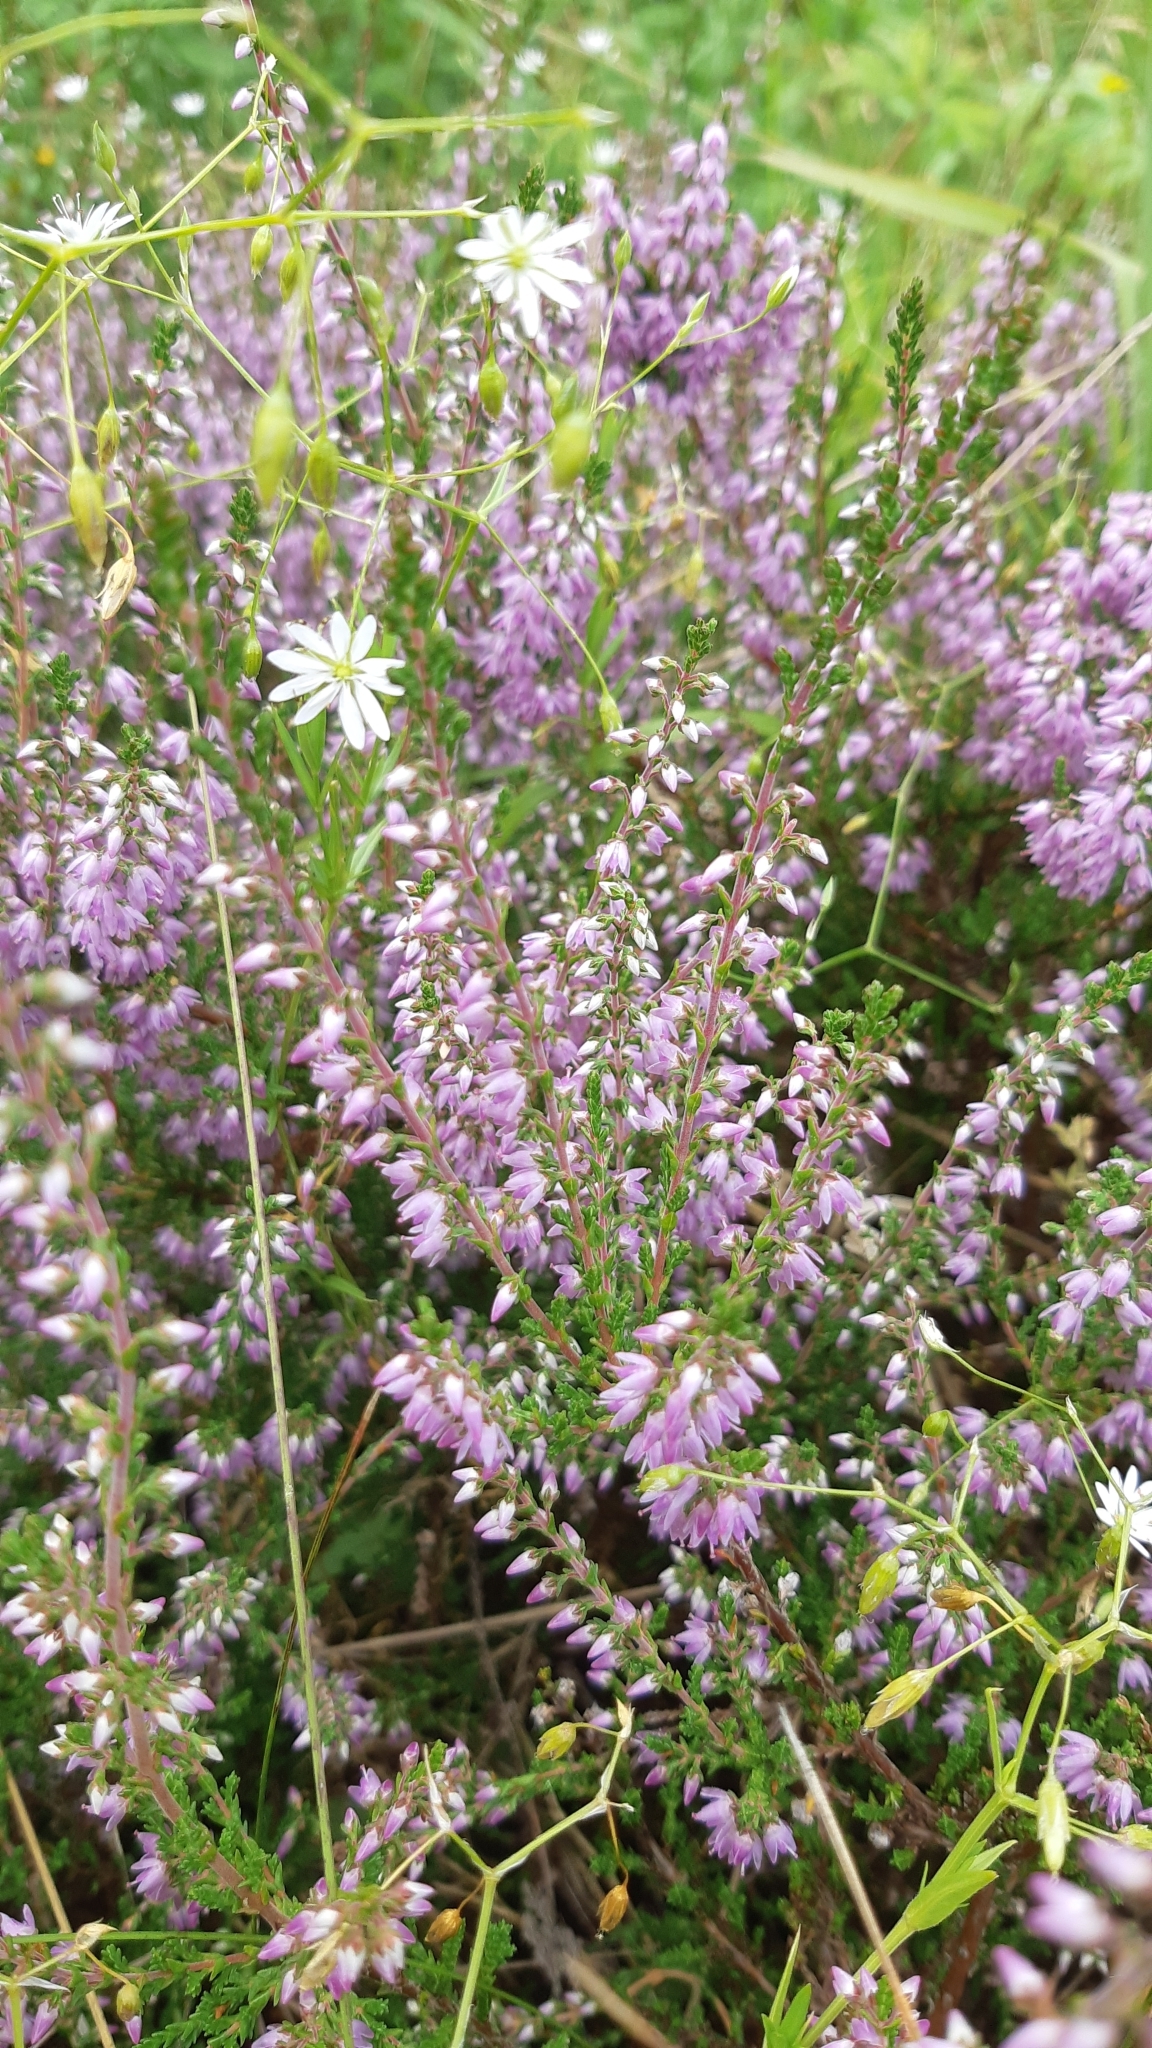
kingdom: Plantae
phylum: Tracheophyta
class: Magnoliopsida
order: Ericales
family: Ericaceae
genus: Calluna
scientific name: Calluna vulgaris
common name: Heather
